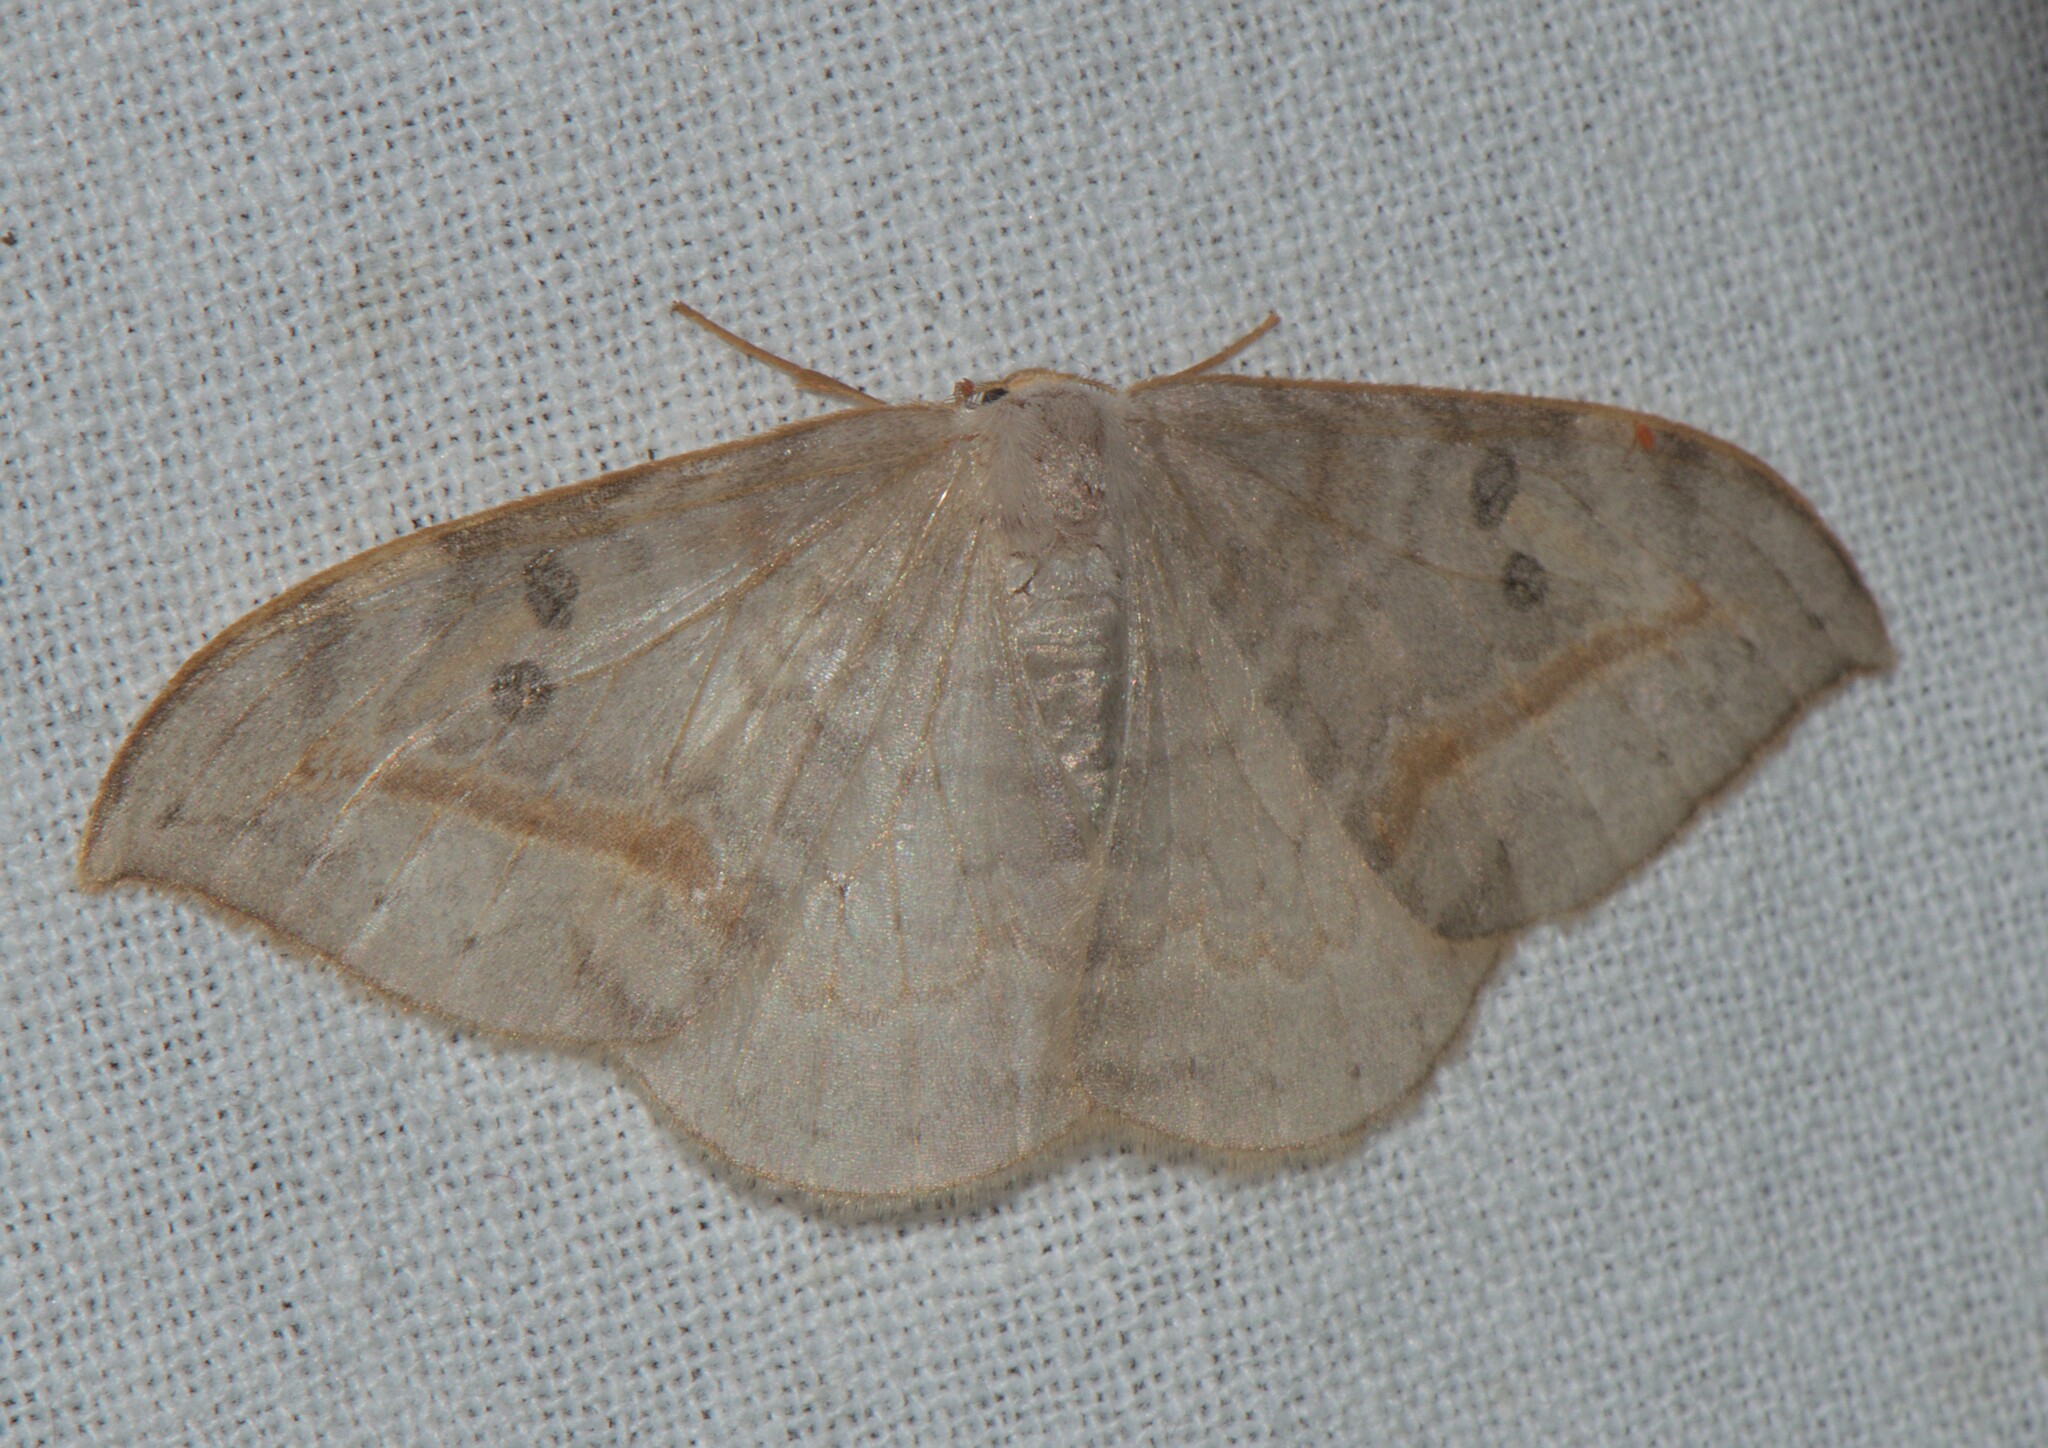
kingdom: Animalia
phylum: Arthropoda
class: Insecta
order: Lepidoptera
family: Drepanidae
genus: Drepana
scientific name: Drepana pallida
